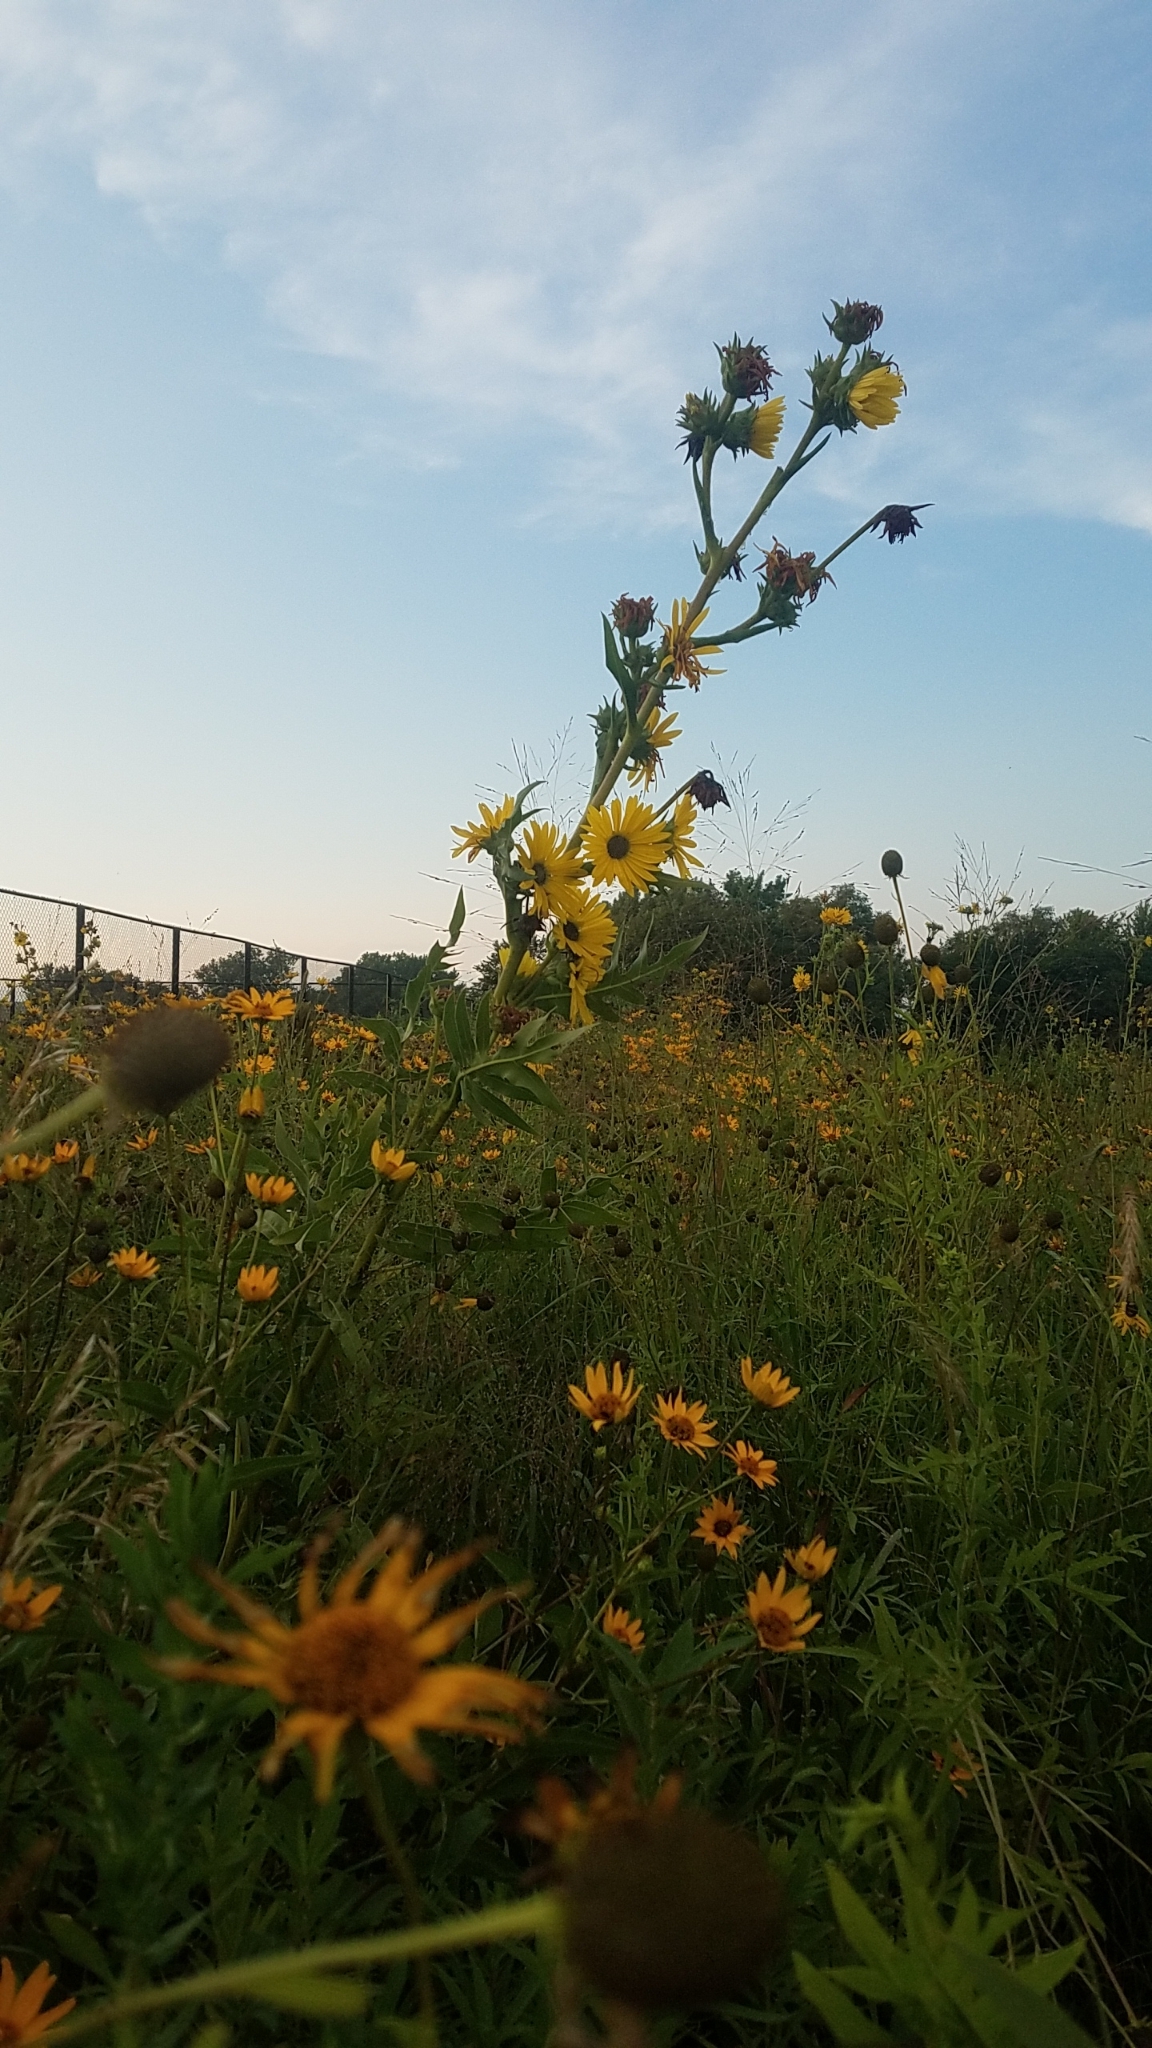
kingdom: Plantae
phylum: Tracheophyta
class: Magnoliopsida
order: Asterales
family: Asteraceae
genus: Silphium
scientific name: Silphium laciniatum
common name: Polarplant
